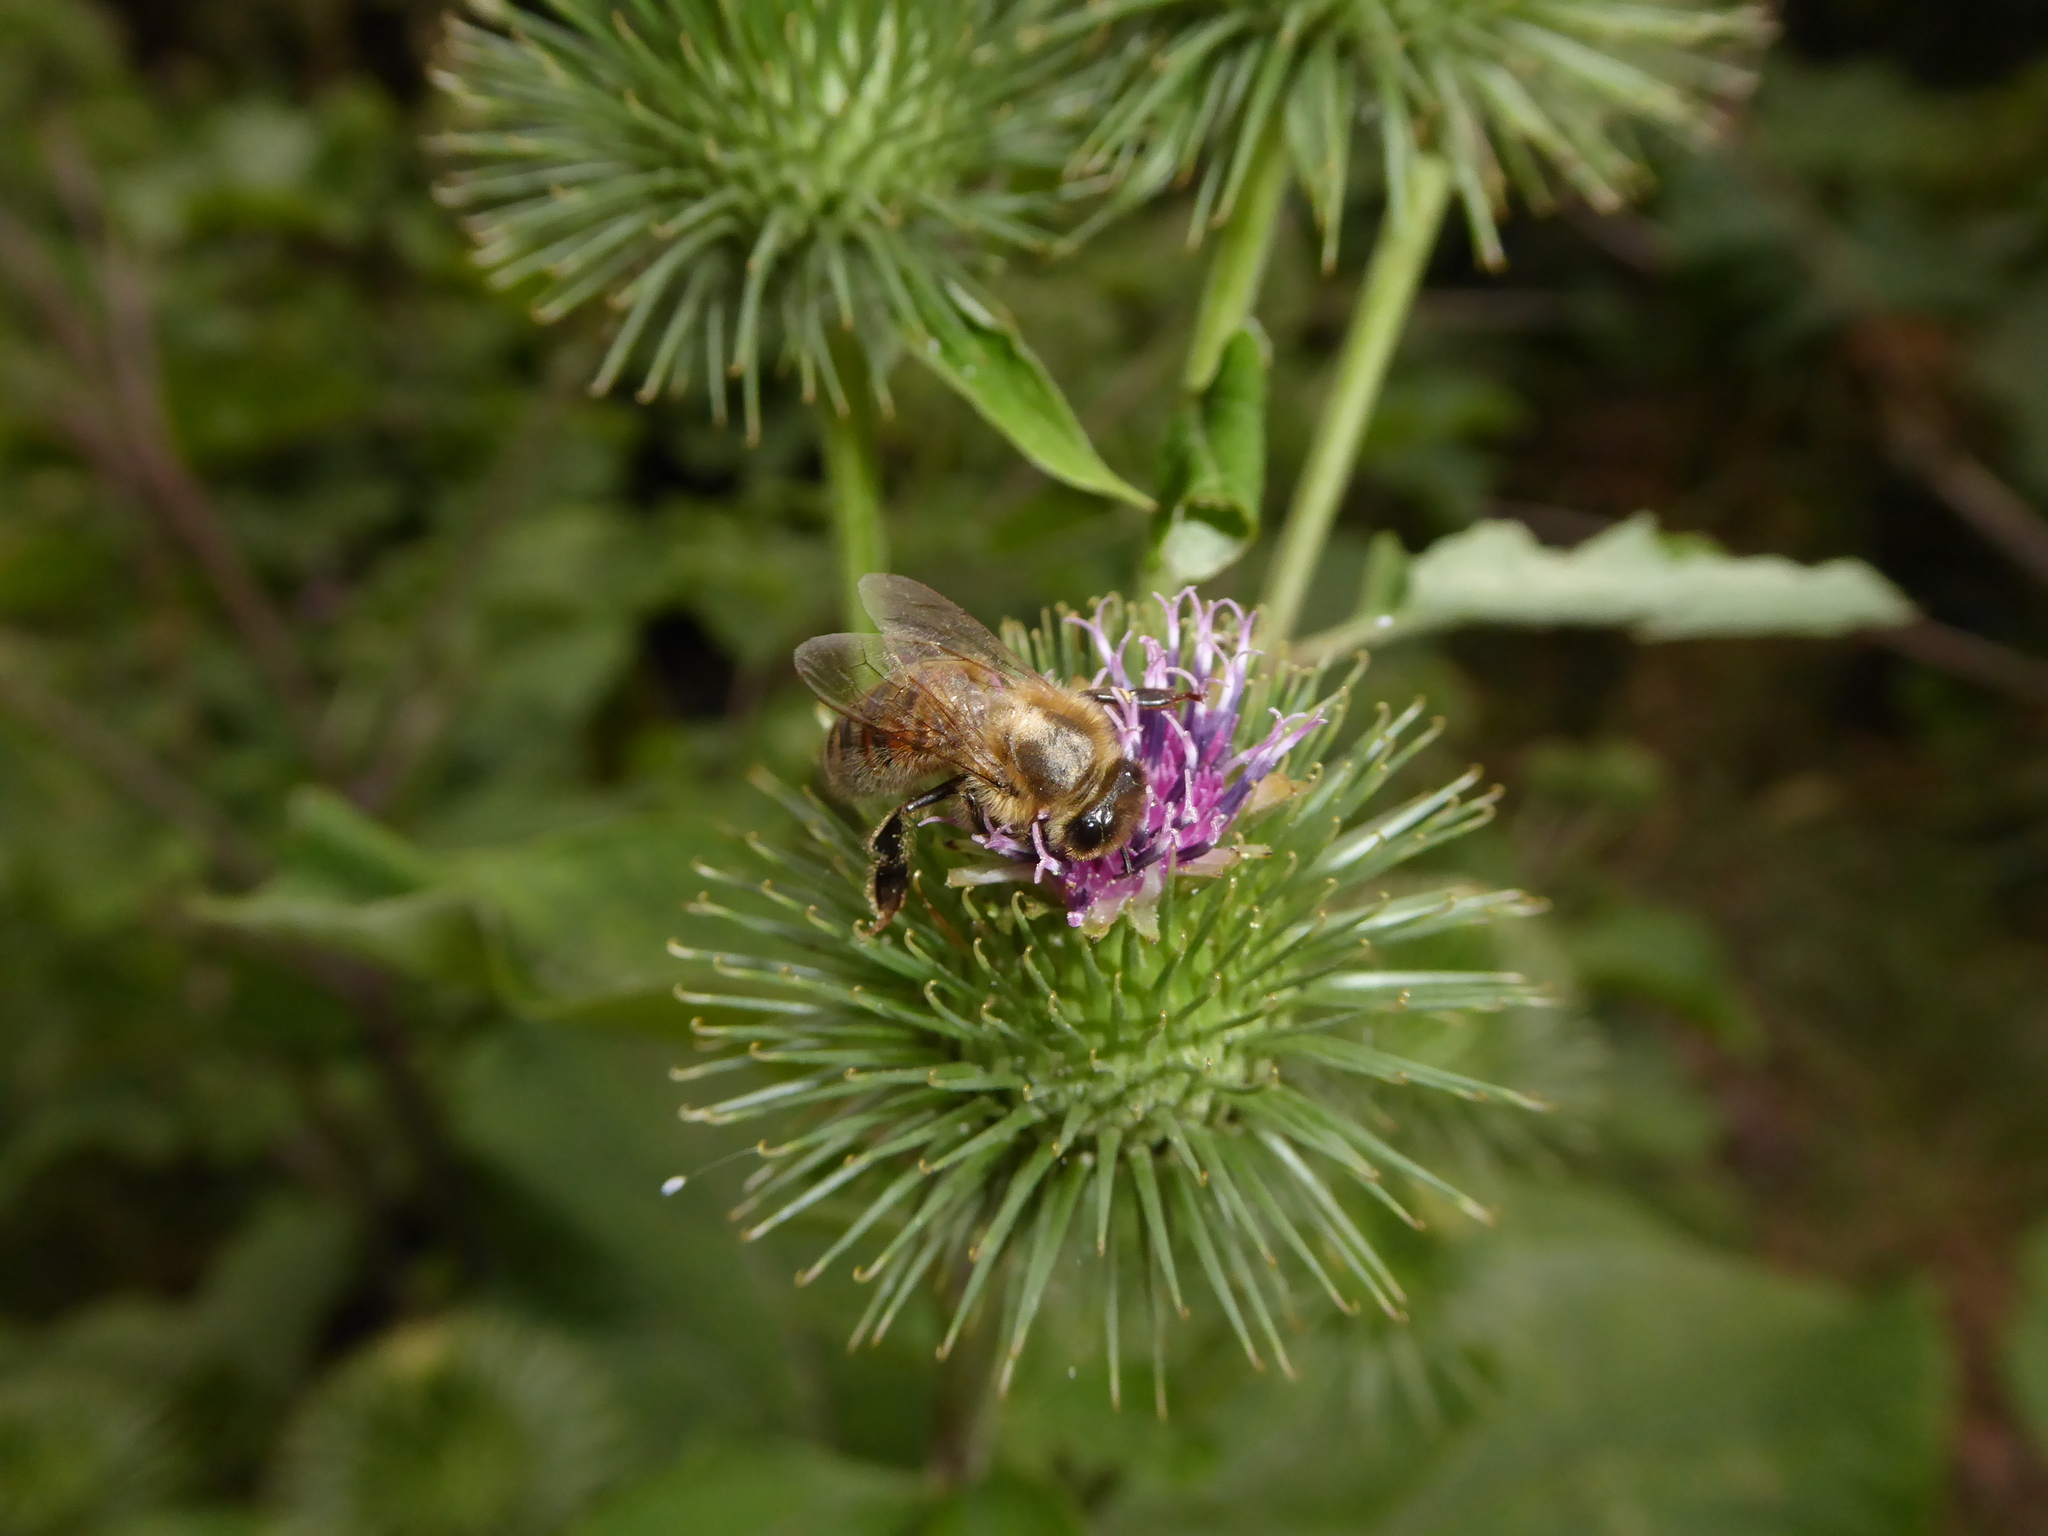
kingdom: Animalia
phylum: Arthropoda
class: Insecta
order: Hymenoptera
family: Apidae
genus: Apis
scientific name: Apis mellifera
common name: Honey bee
